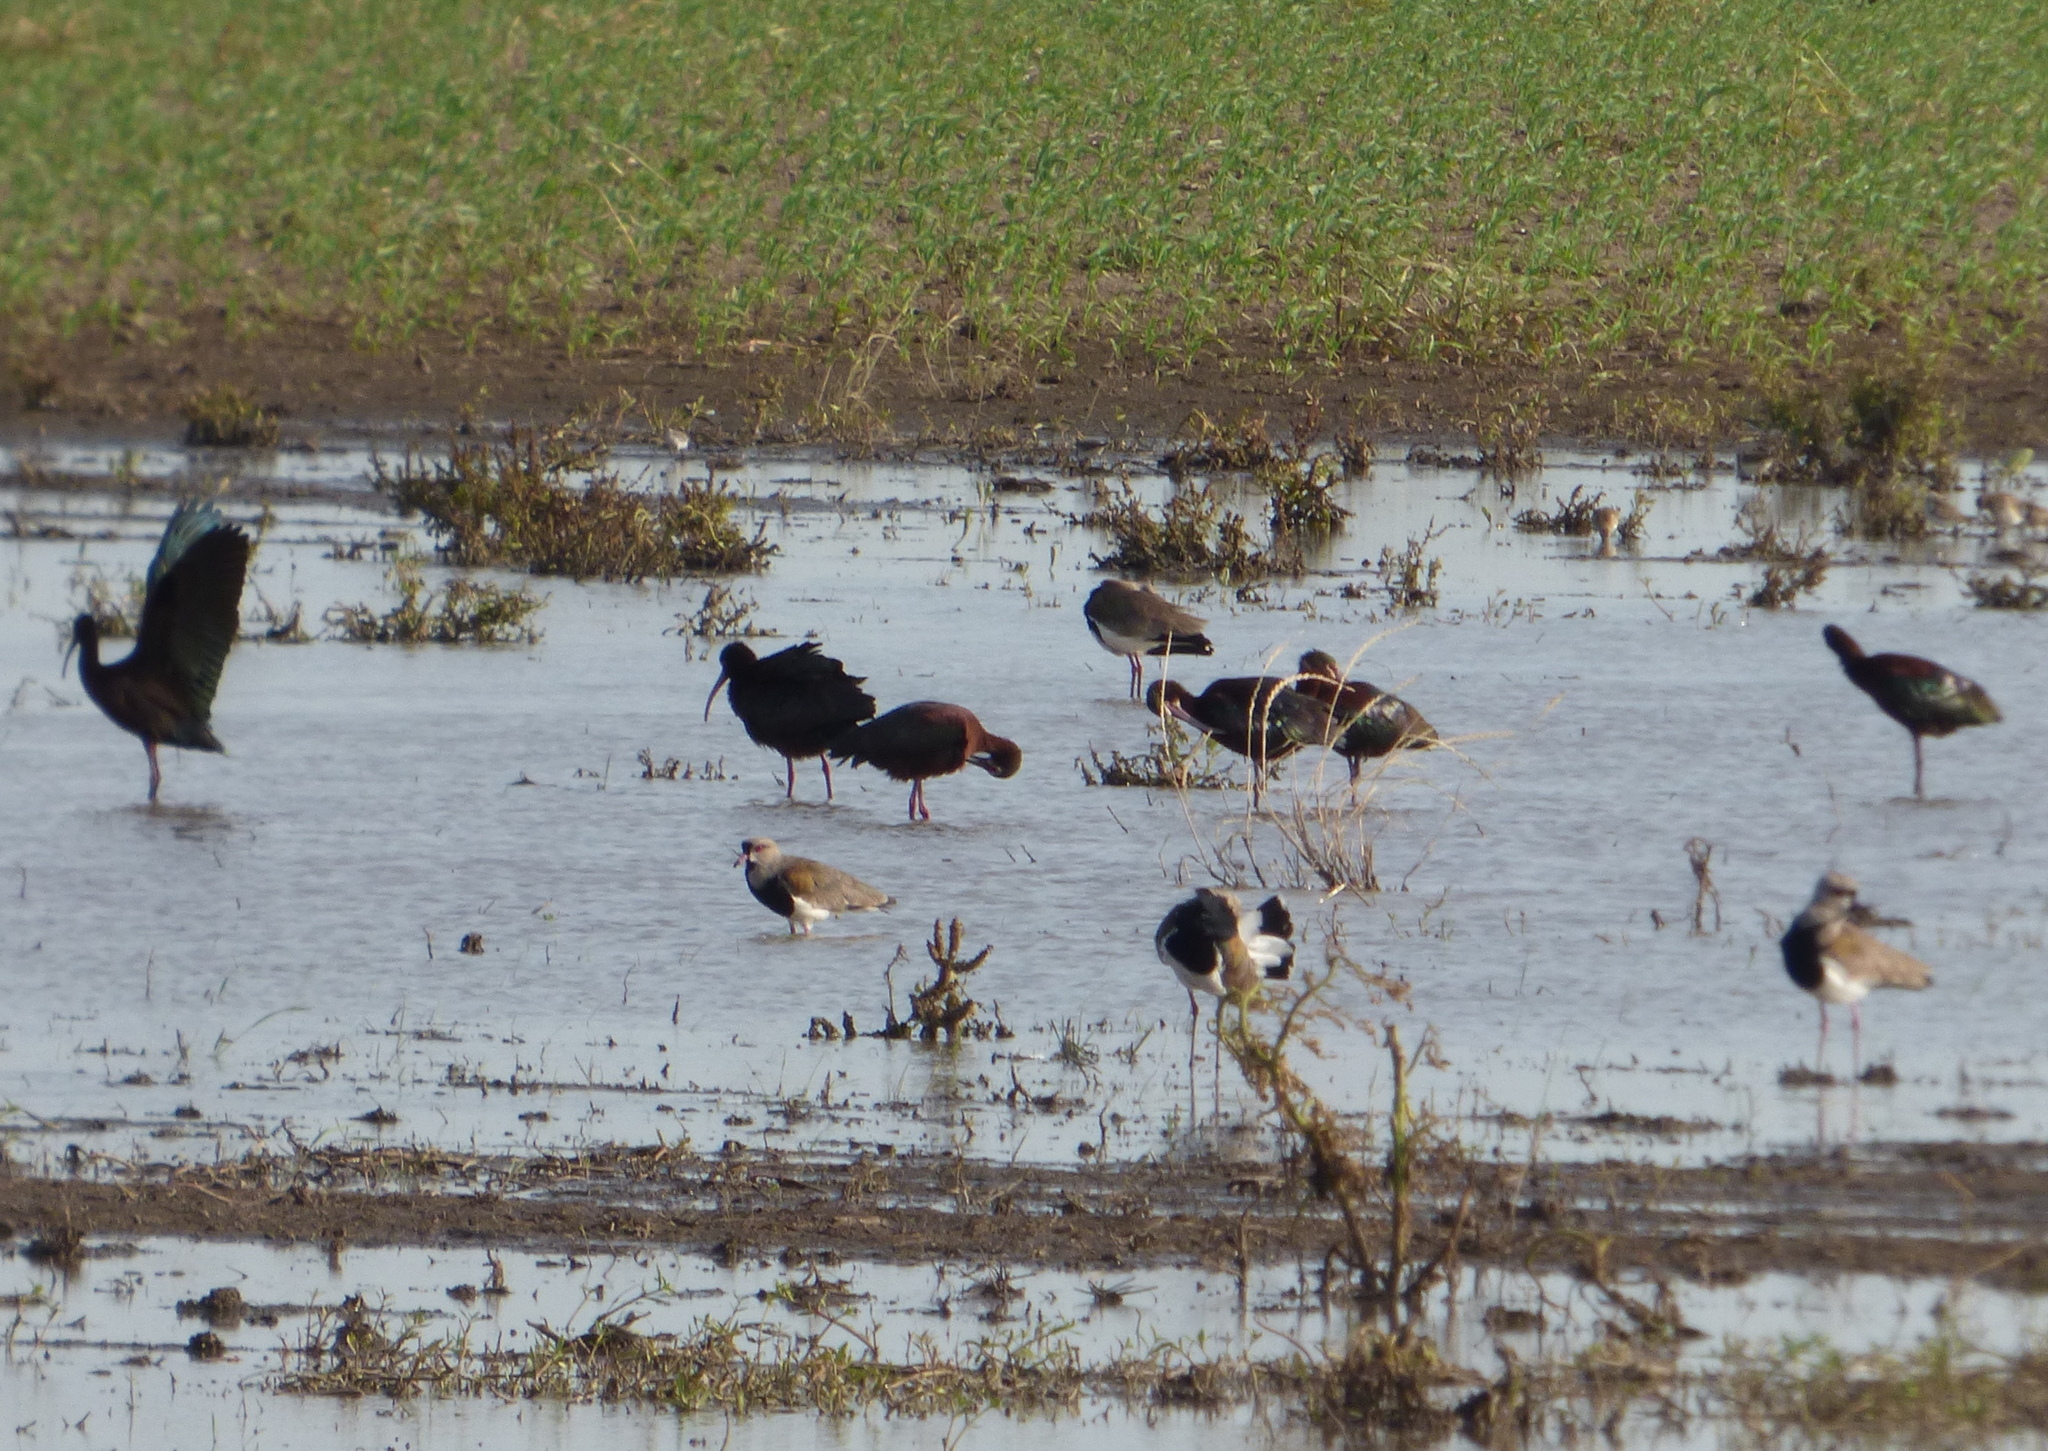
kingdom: Animalia
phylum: Chordata
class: Aves
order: Pelecaniformes
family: Threskiornithidae
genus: Plegadis
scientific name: Plegadis chihi
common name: White-faced ibis
